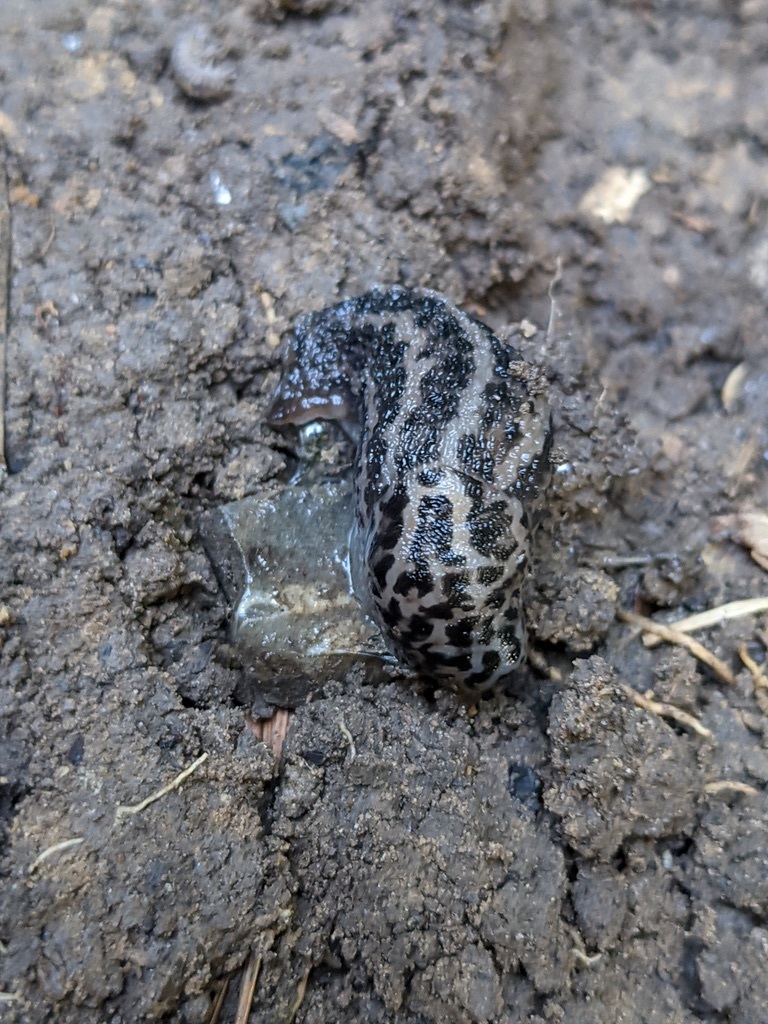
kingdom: Animalia
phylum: Mollusca
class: Gastropoda
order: Stylommatophora
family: Limacidae
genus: Limax
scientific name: Limax maximus
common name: Great grey slug
